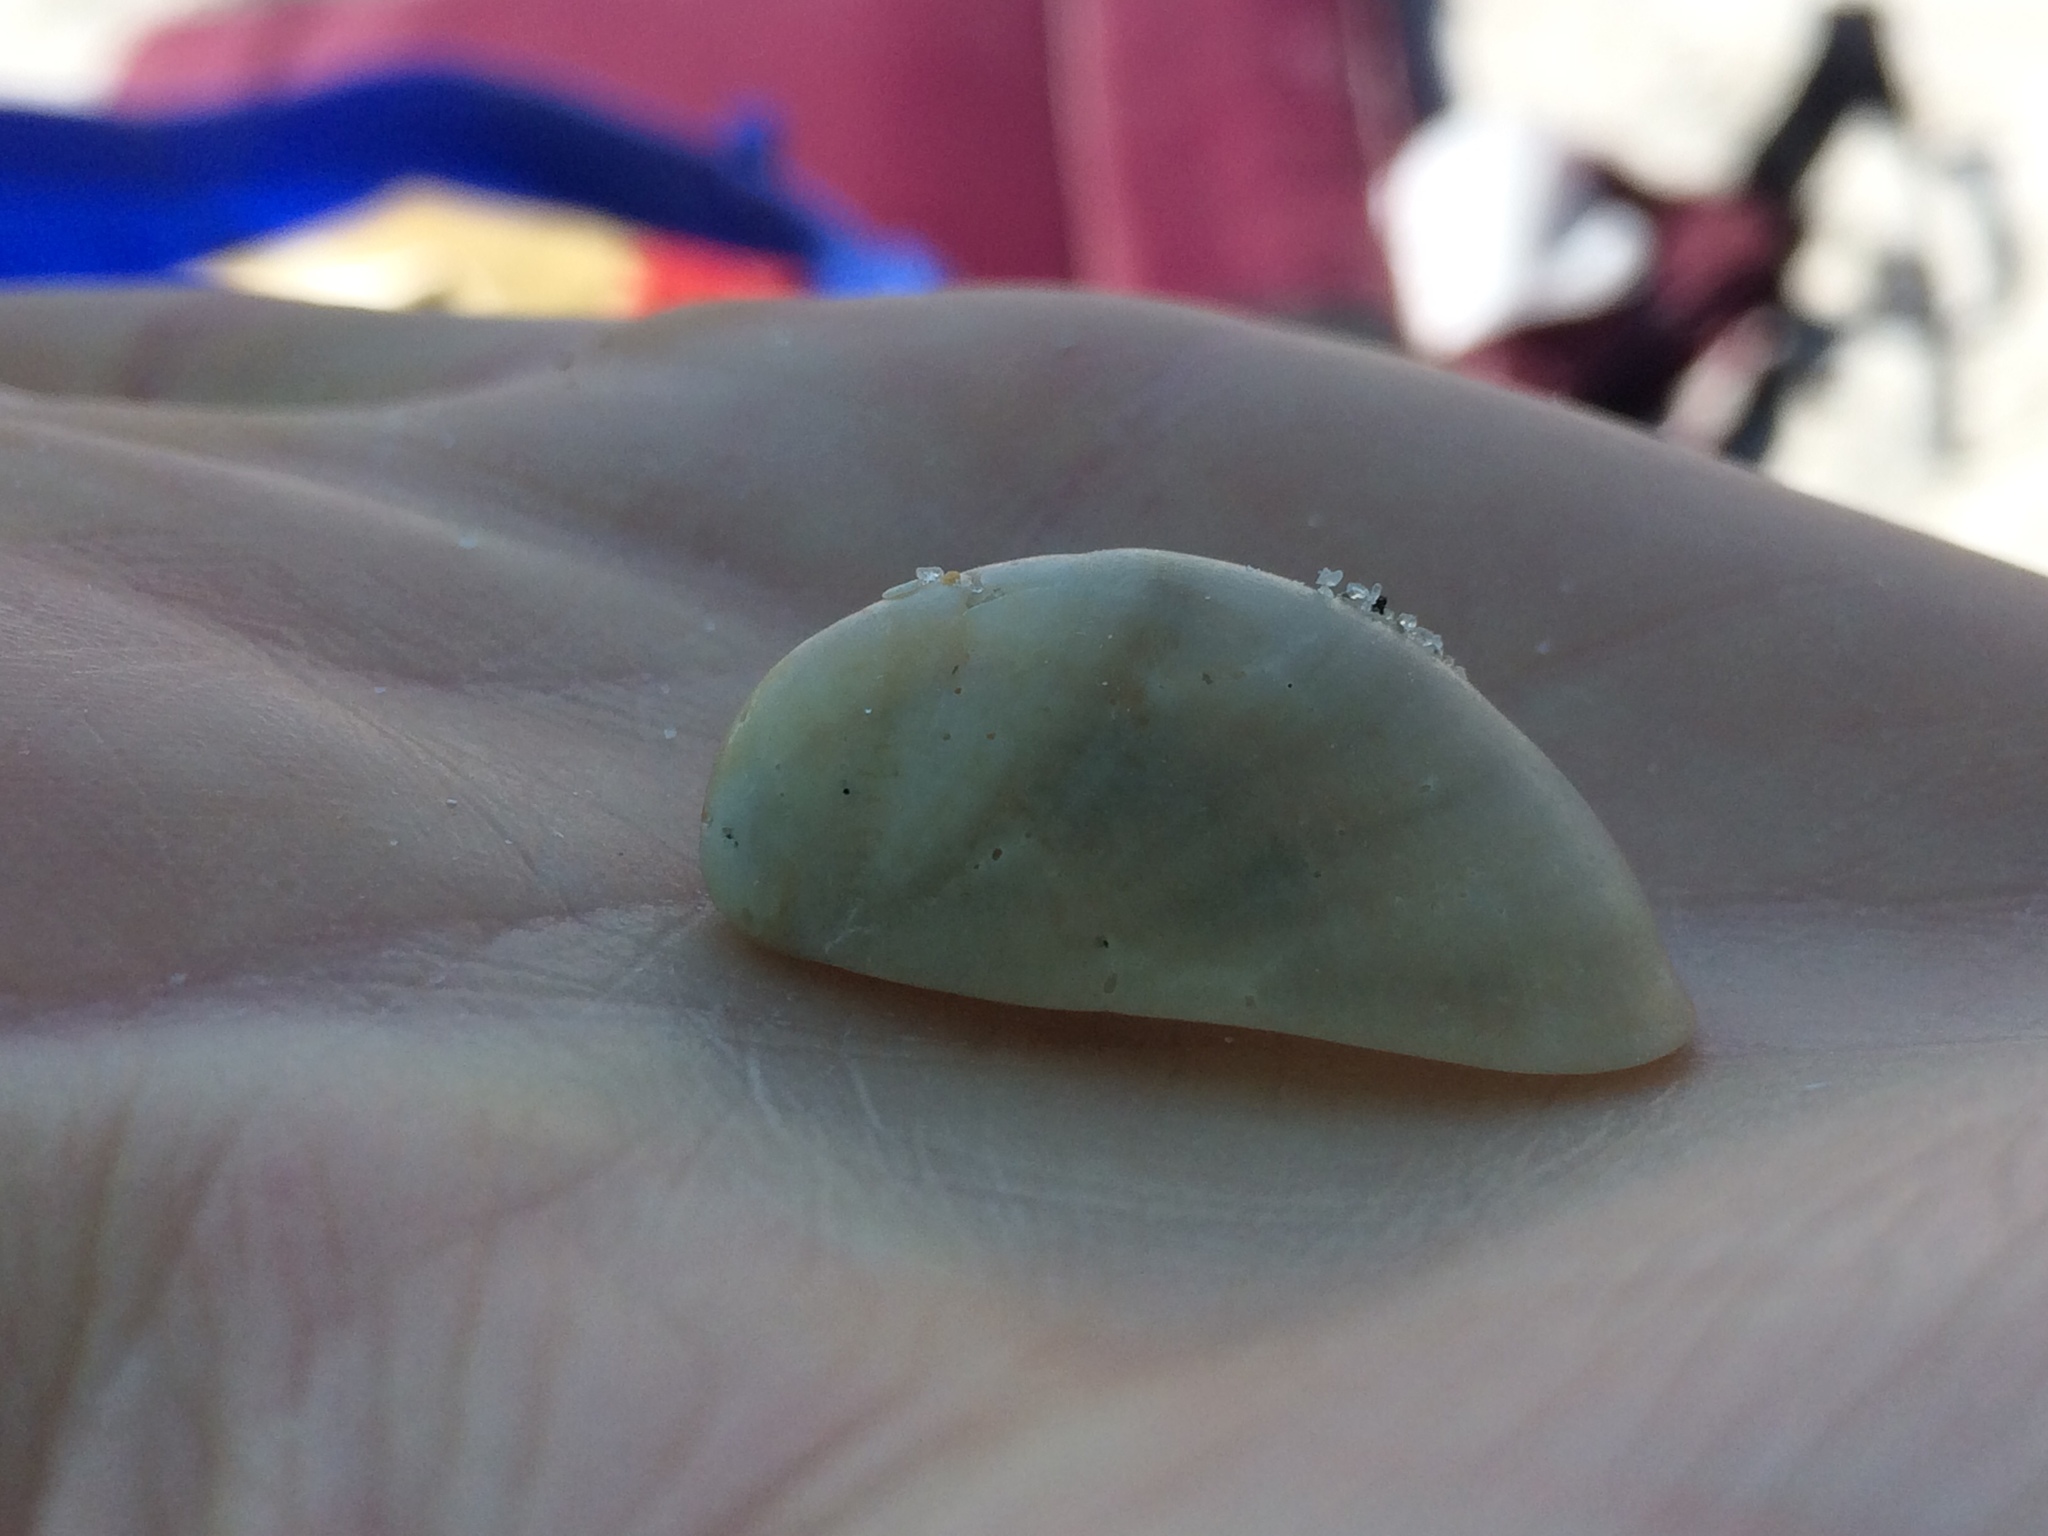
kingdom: Animalia
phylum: Mollusca
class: Gastropoda
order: Littorinimorpha
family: Calyptraeidae
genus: Crepidula
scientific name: Crepidula fornicata
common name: Slipper limpet
